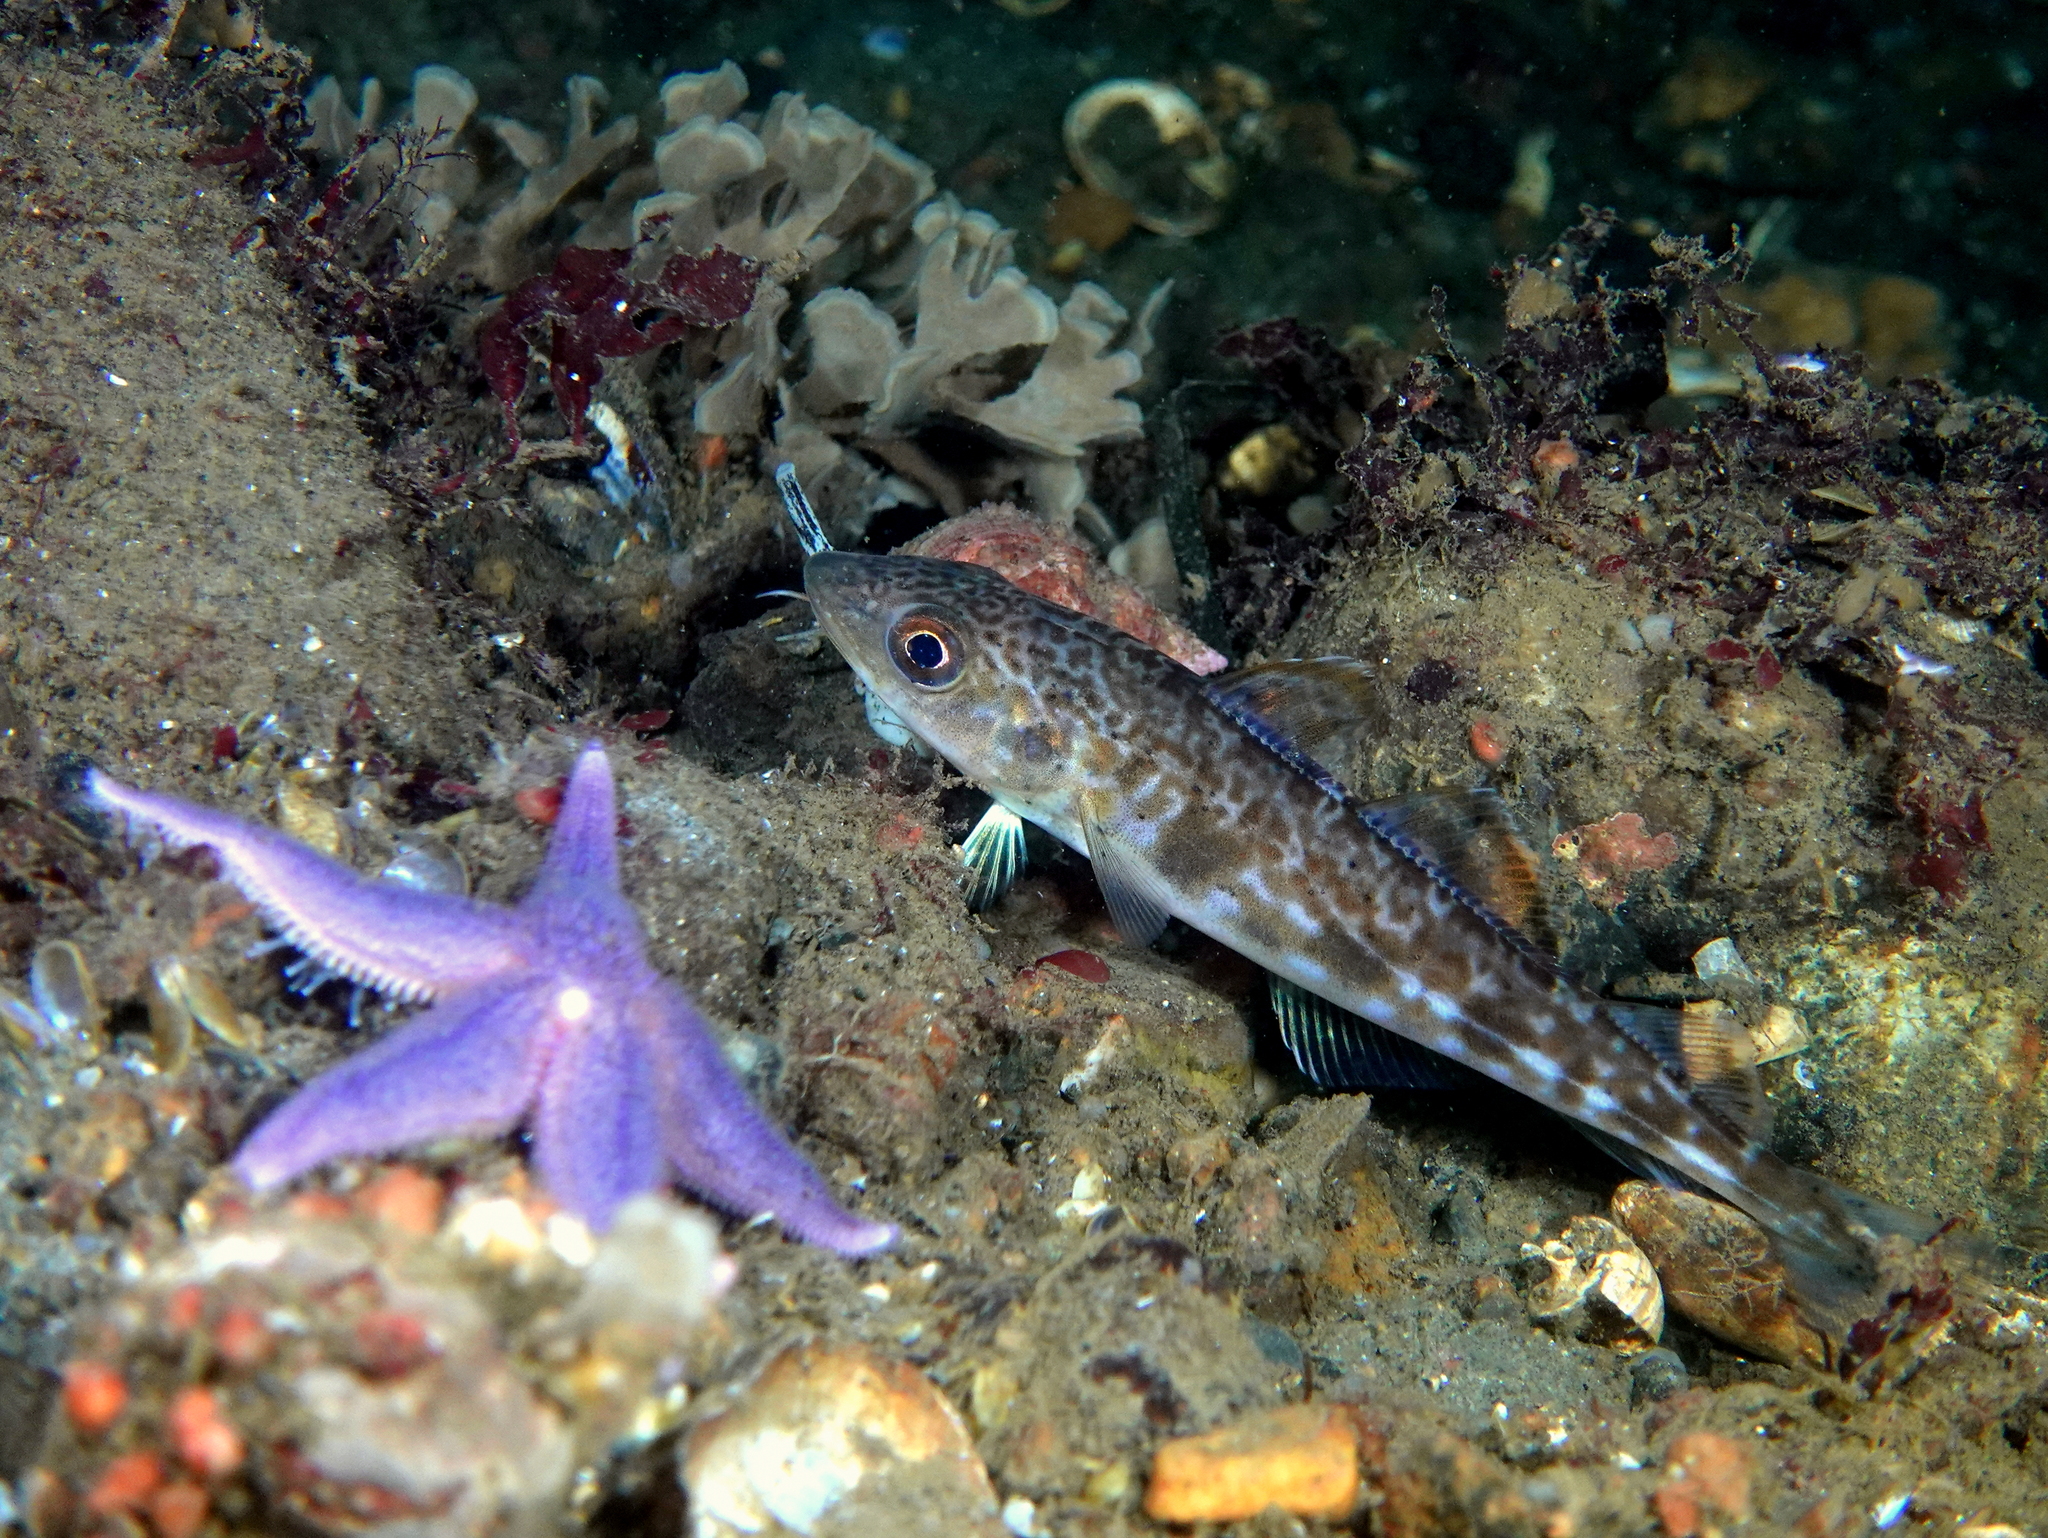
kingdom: Animalia
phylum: Chordata
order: Gadiformes
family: Gadidae
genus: Gadus
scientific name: Gadus morhua
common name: Atlantic cod
